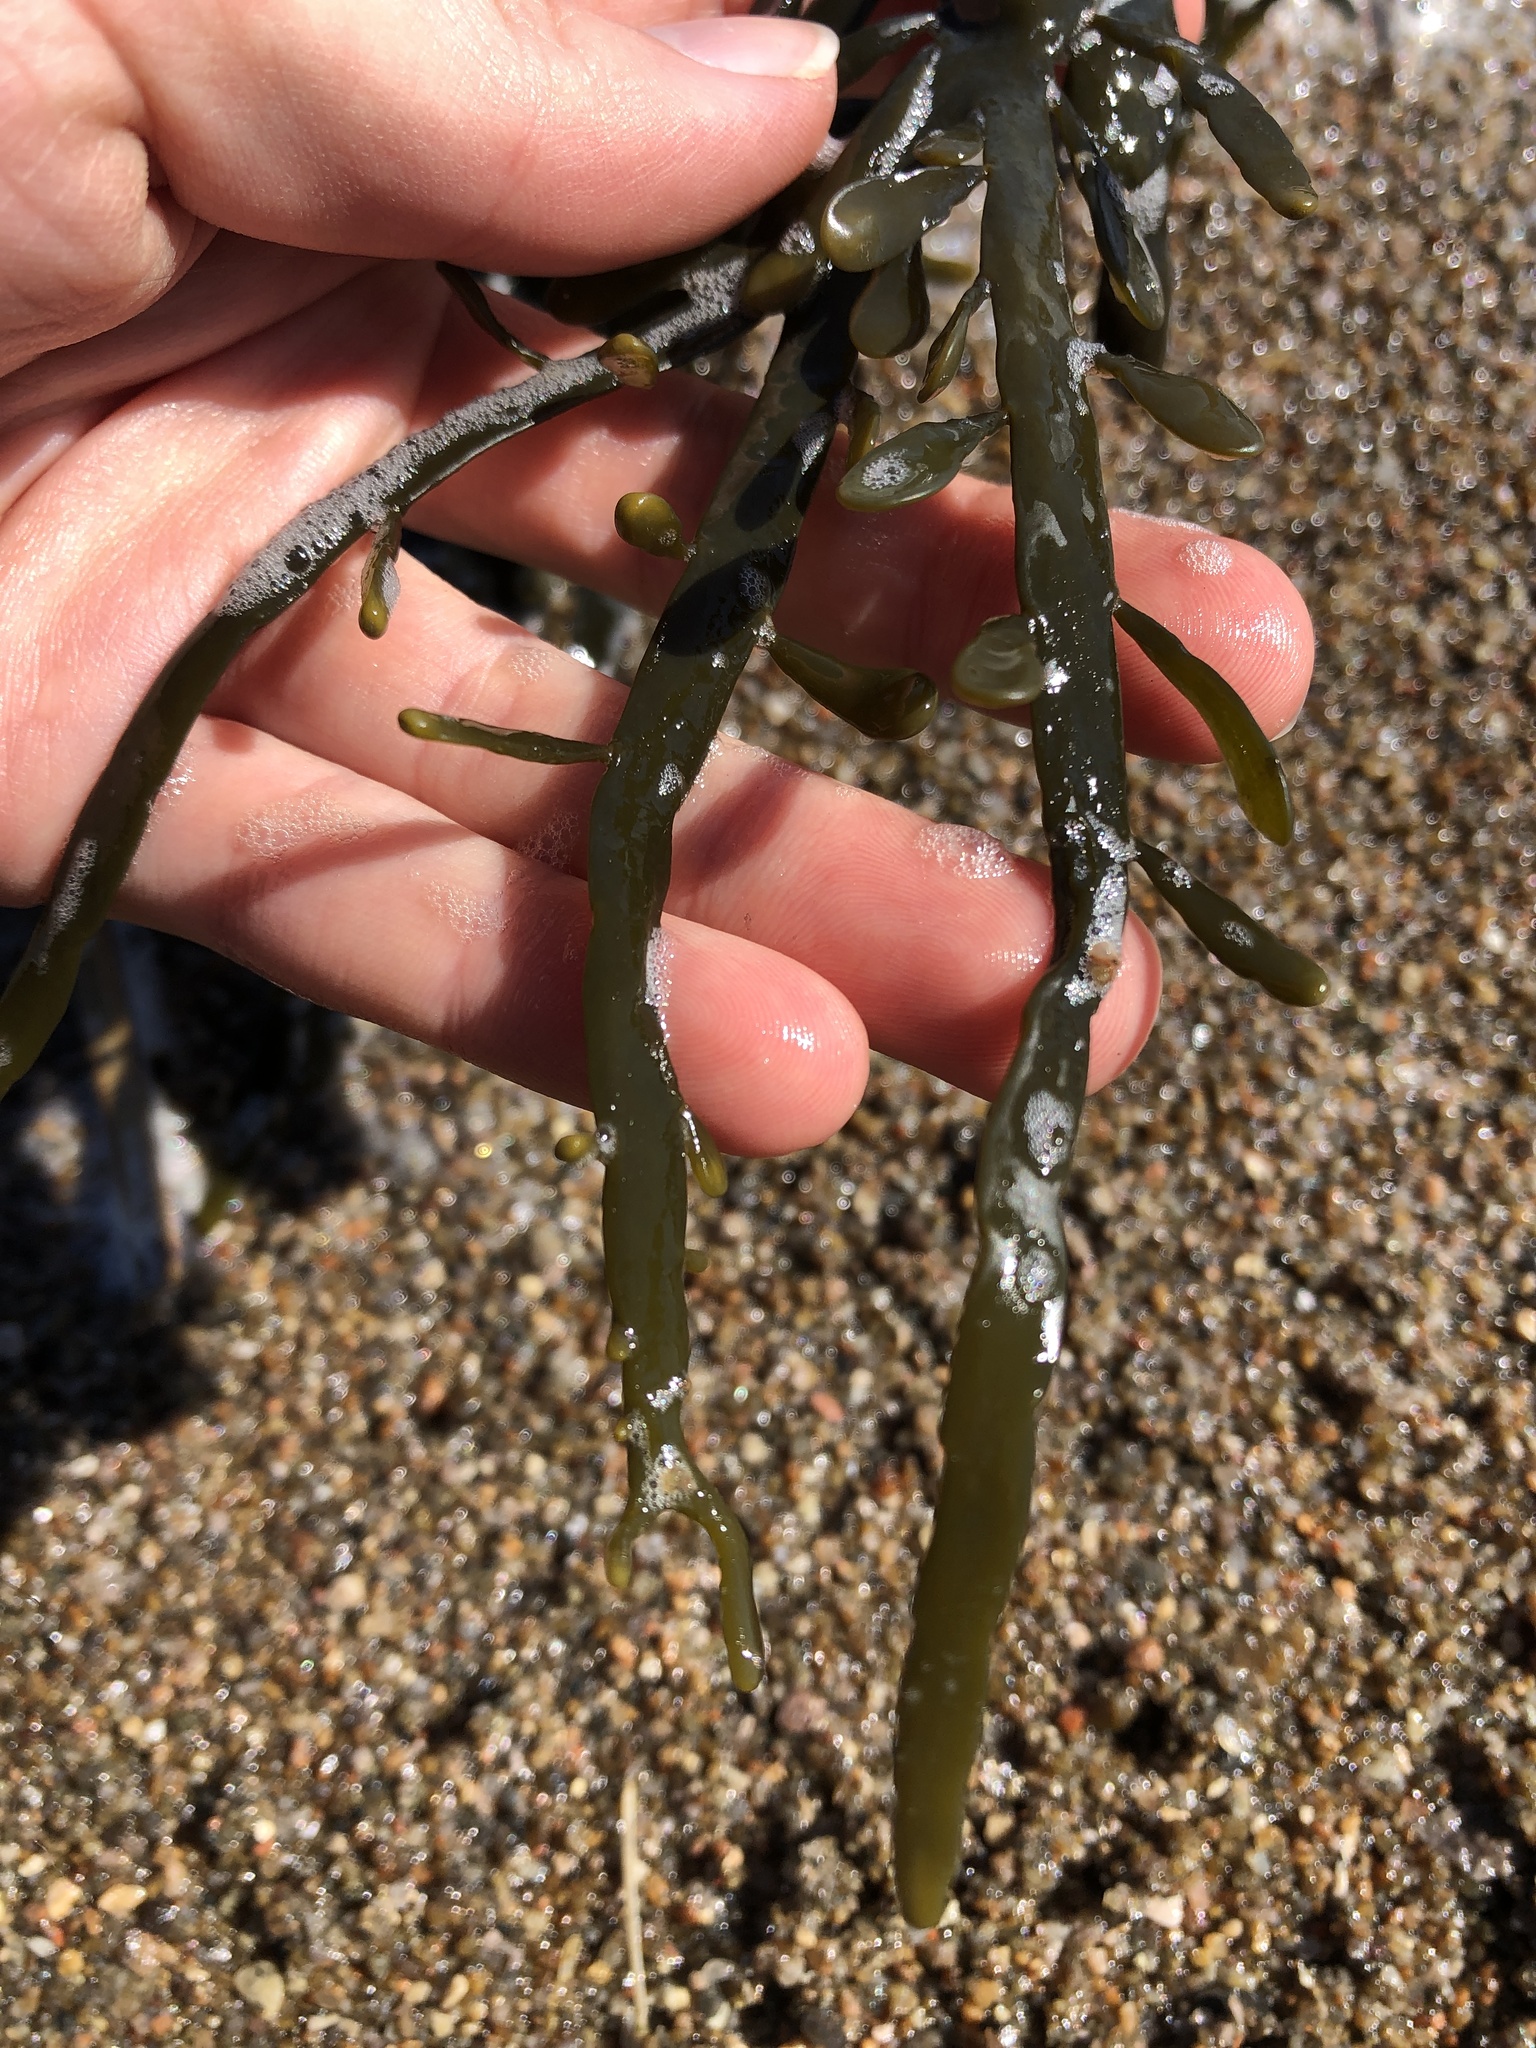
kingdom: Chromista
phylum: Ochrophyta
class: Phaeophyceae
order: Fucales
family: Fucaceae
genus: Ascophyllum
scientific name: Ascophyllum nodosum
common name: Knotted wrack
